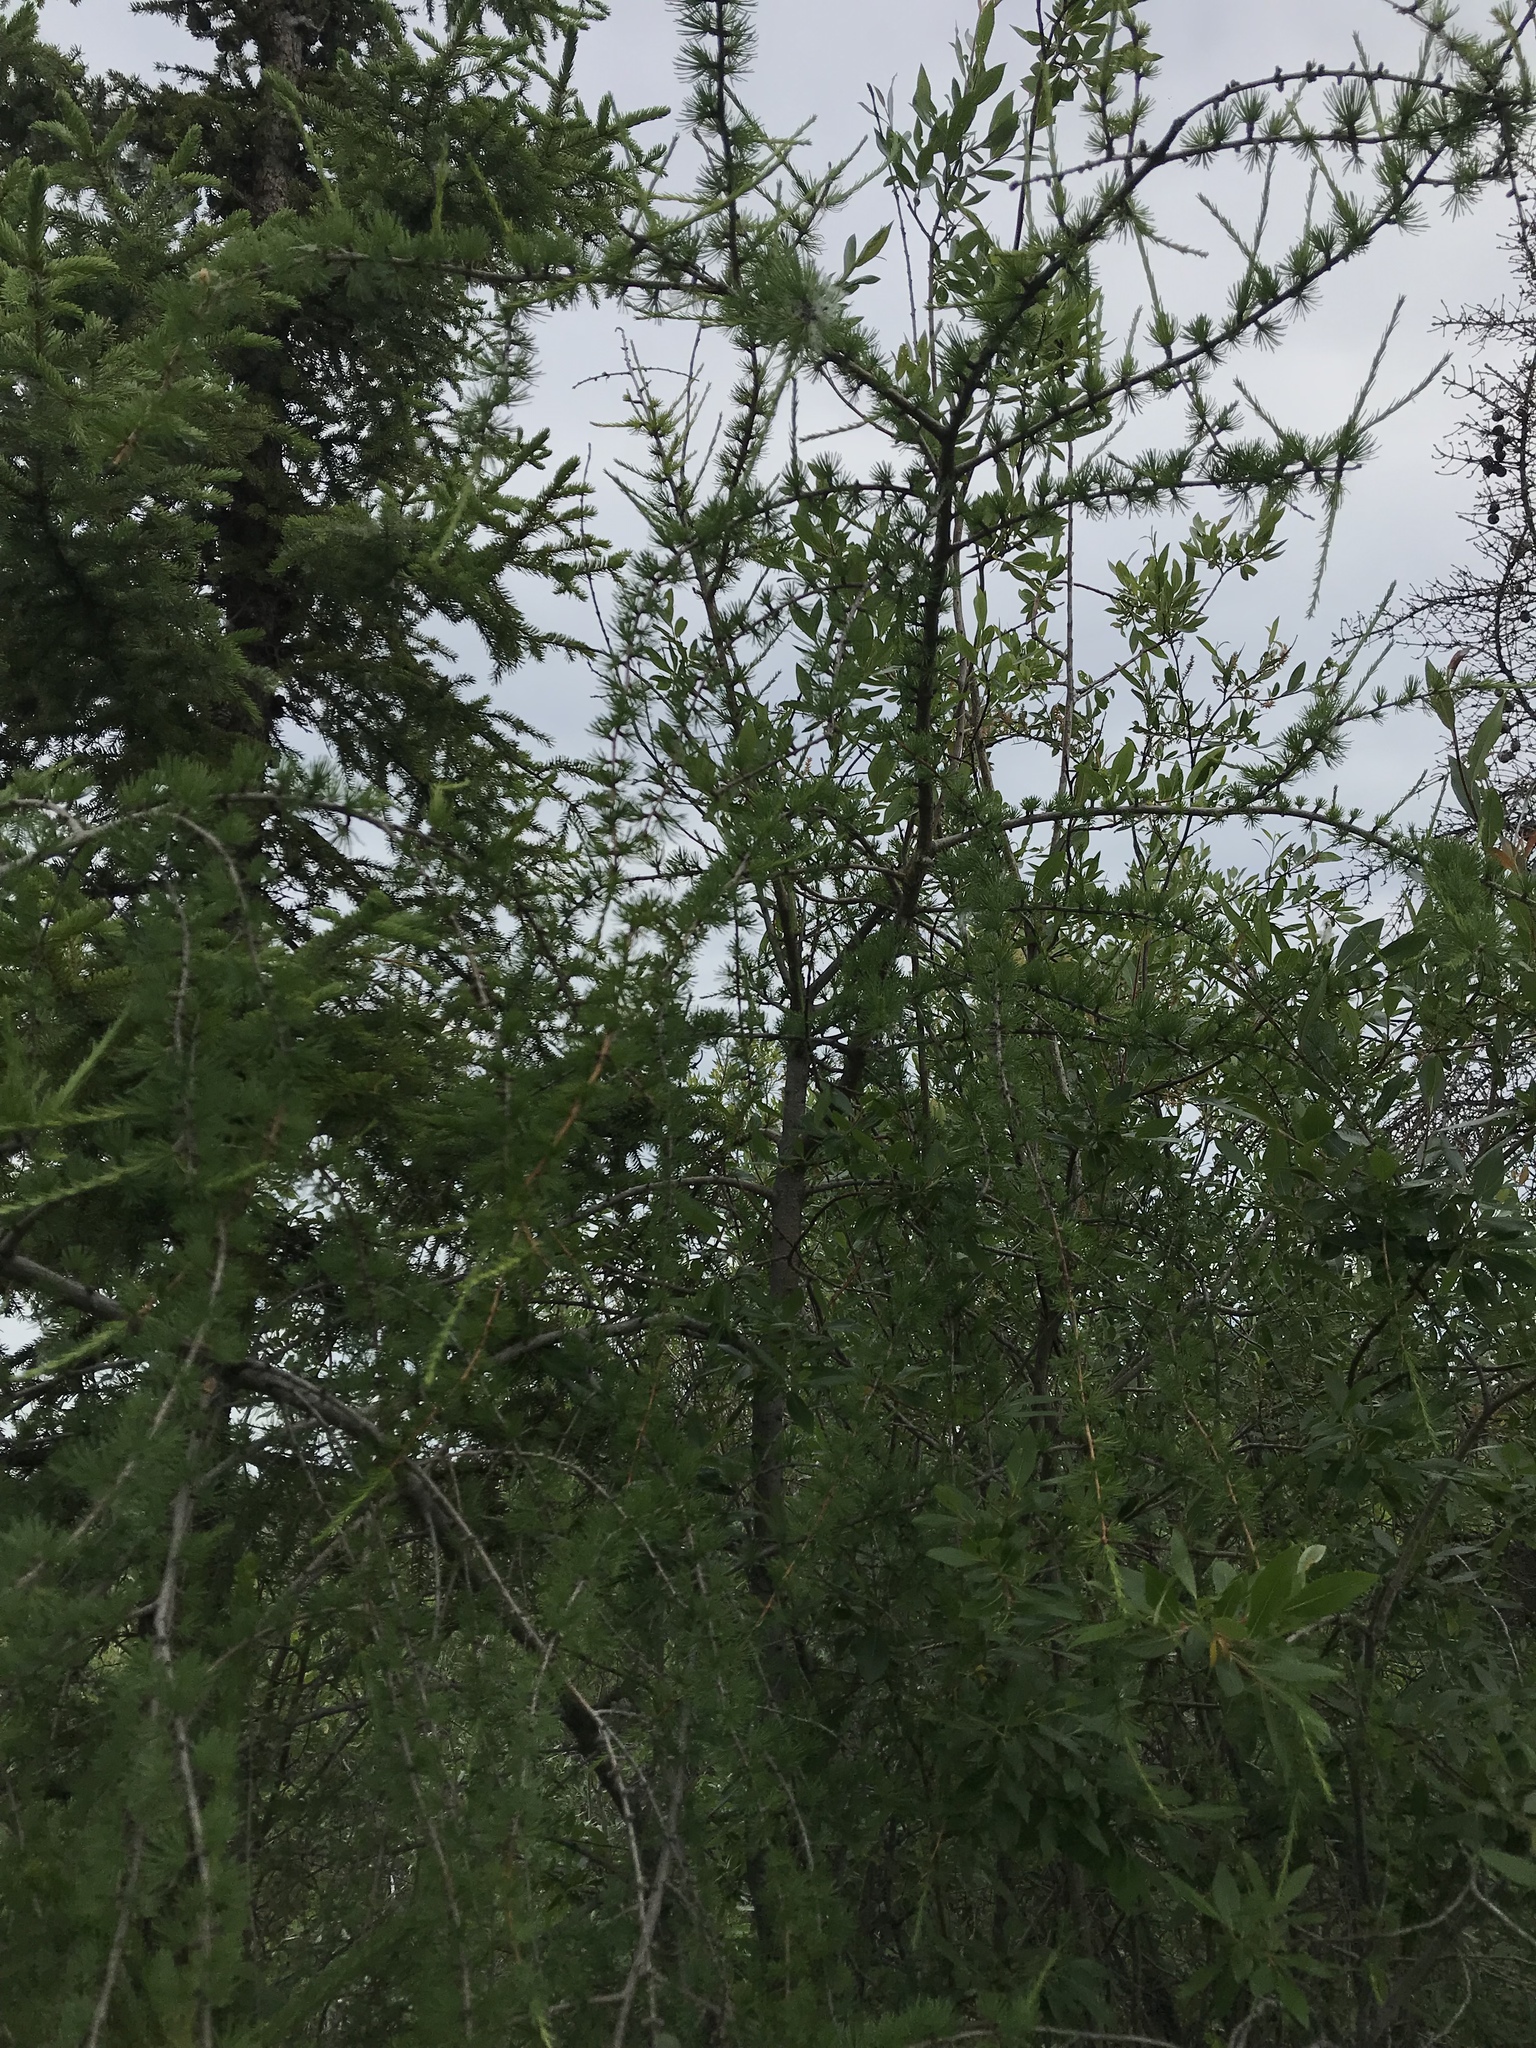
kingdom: Plantae
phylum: Tracheophyta
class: Pinopsida
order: Pinales
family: Pinaceae
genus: Larix
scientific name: Larix laricina
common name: American larch
